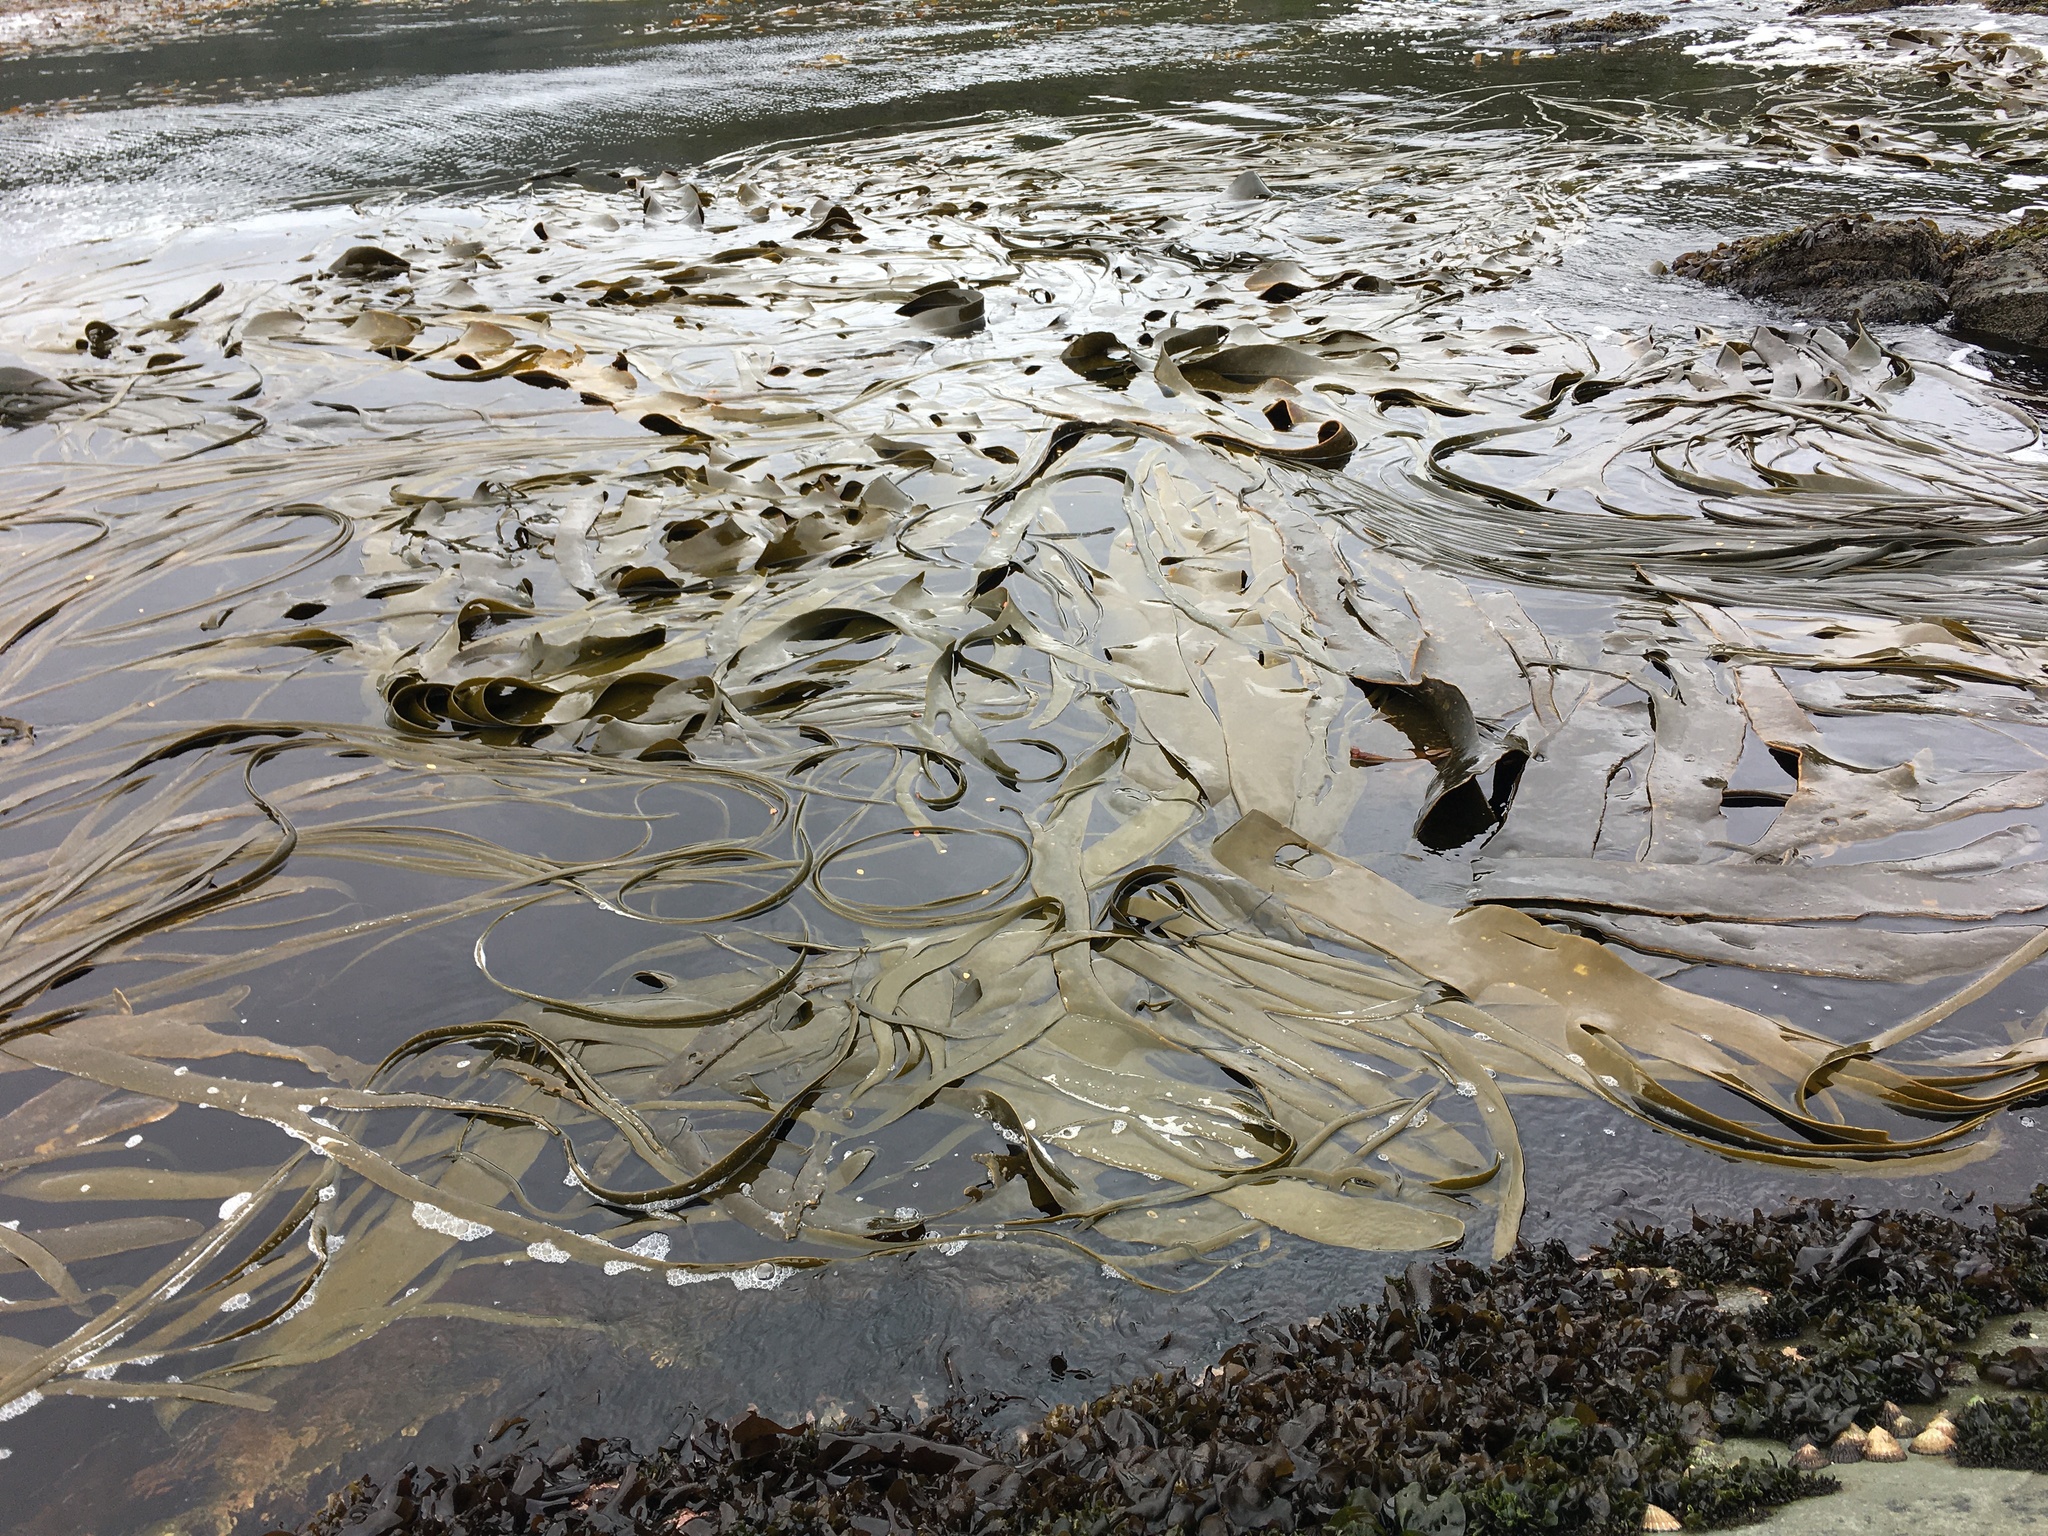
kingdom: Chromista
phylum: Ochrophyta
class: Phaeophyceae
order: Fucales
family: Durvillaeaceae
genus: Durvillaea
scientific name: Durvillaea antarctica
